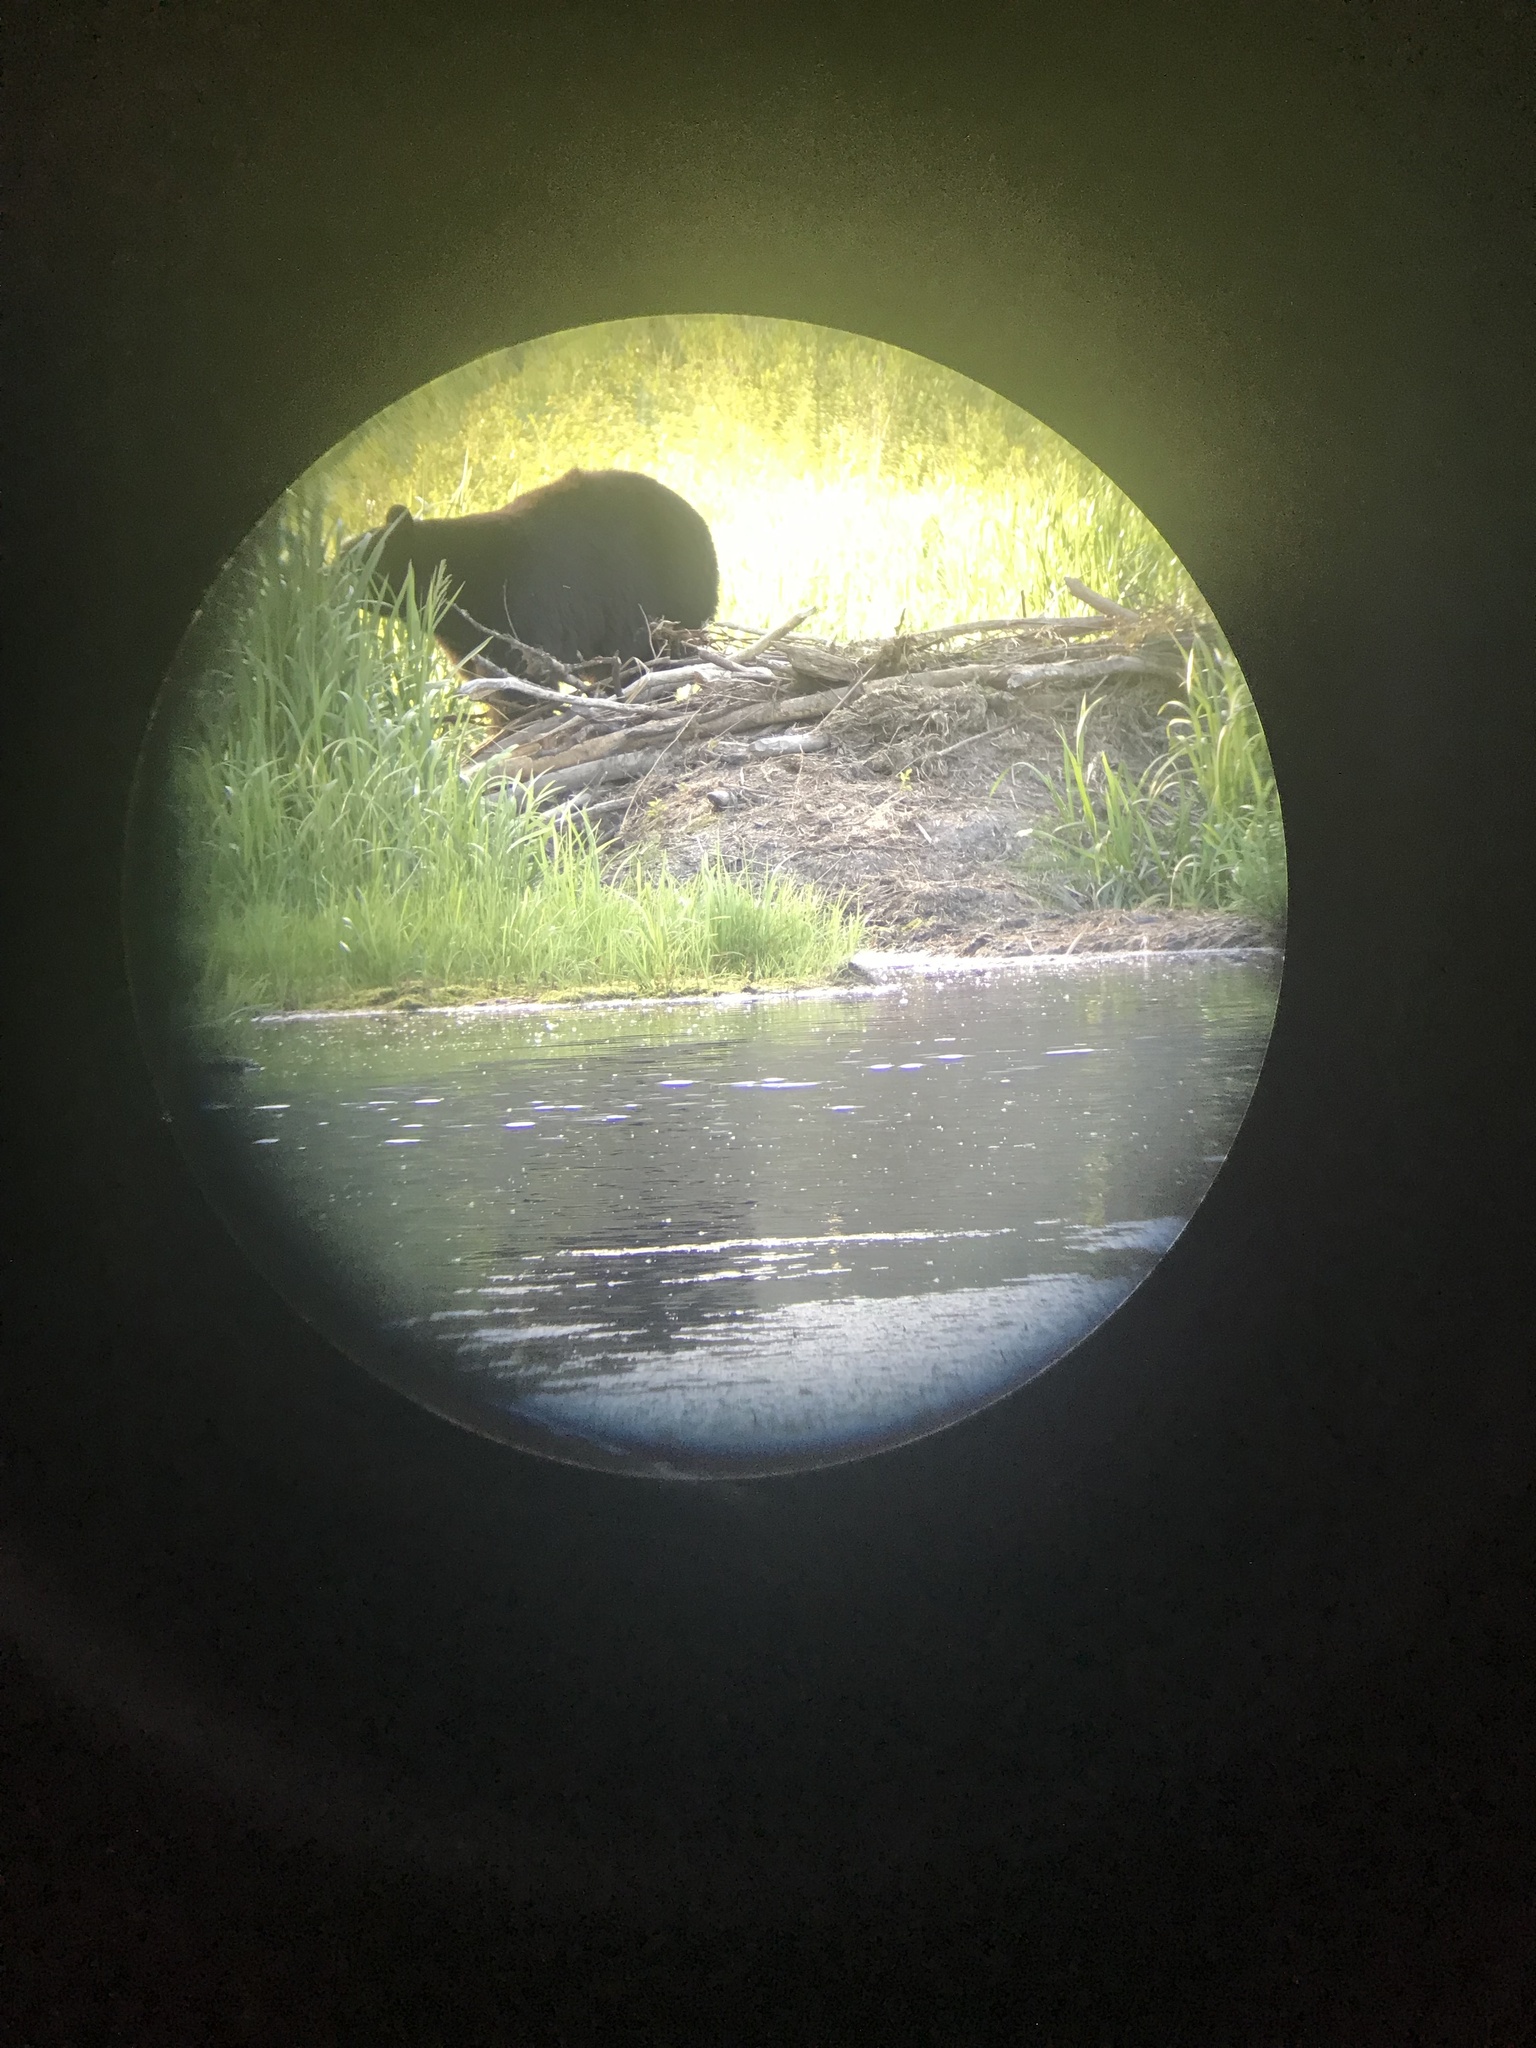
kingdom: Animalia
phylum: Chordata
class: Mammalia
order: Carnivora
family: Ursidae
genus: Ursus
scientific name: Ursus americanus
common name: American black bear
